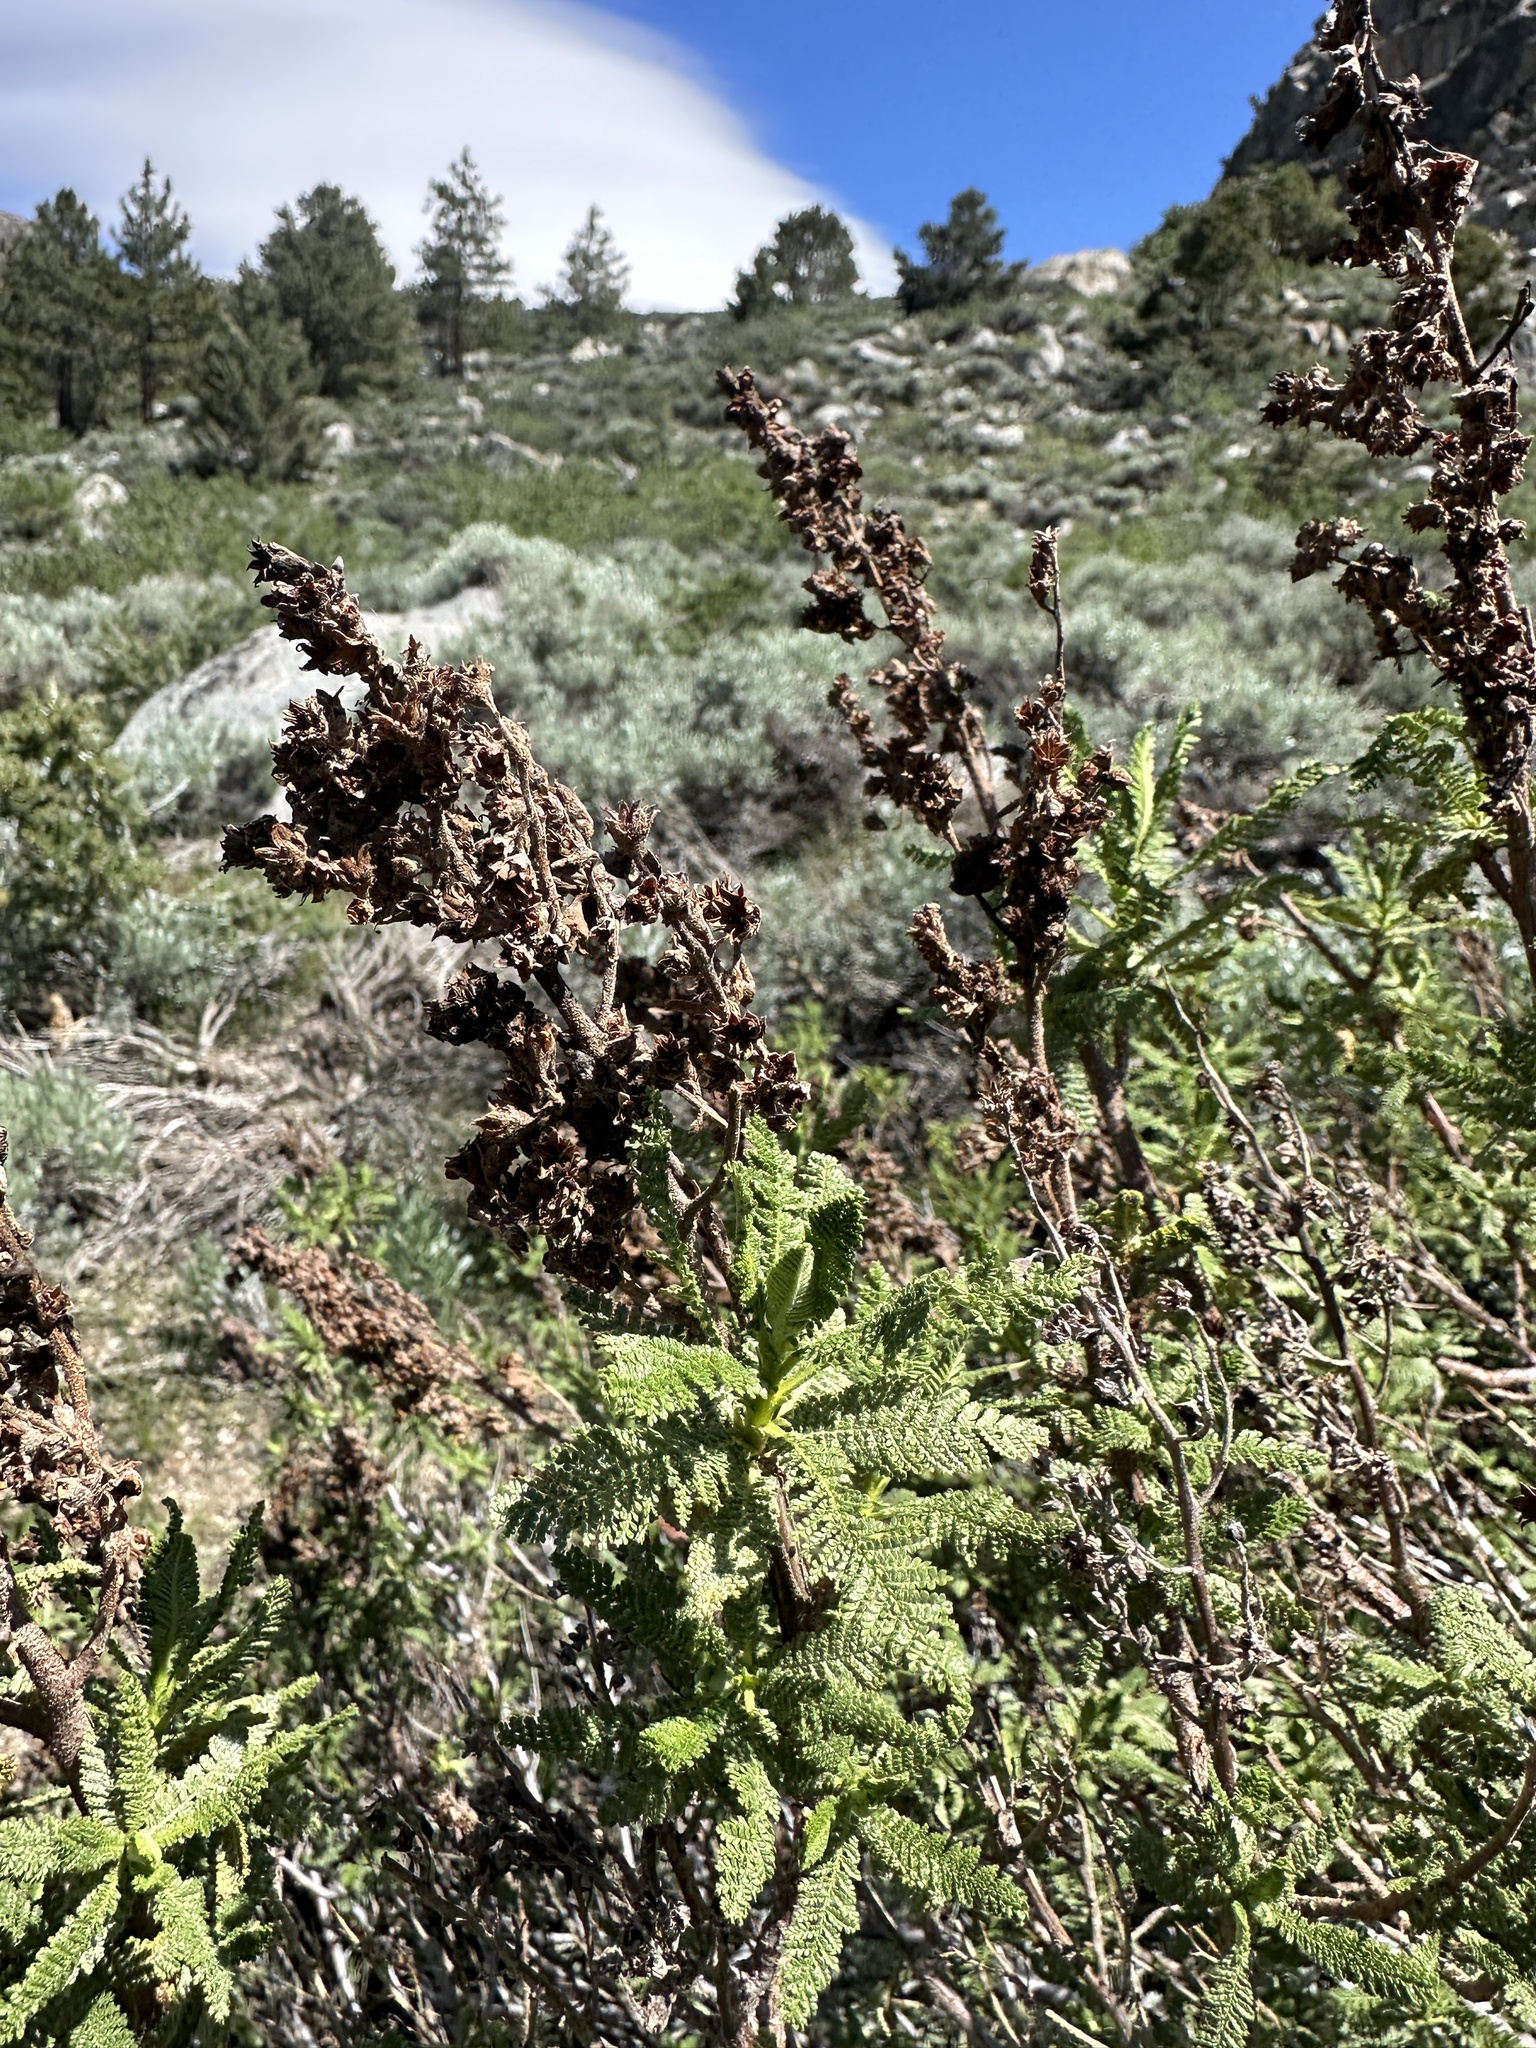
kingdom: Plantae
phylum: Tracheophyta
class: Magnoliopsida
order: Rosales
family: Rosaceae
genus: Chamaebatiaria
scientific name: Chamaebatiaria millefolium
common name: Fernbush
